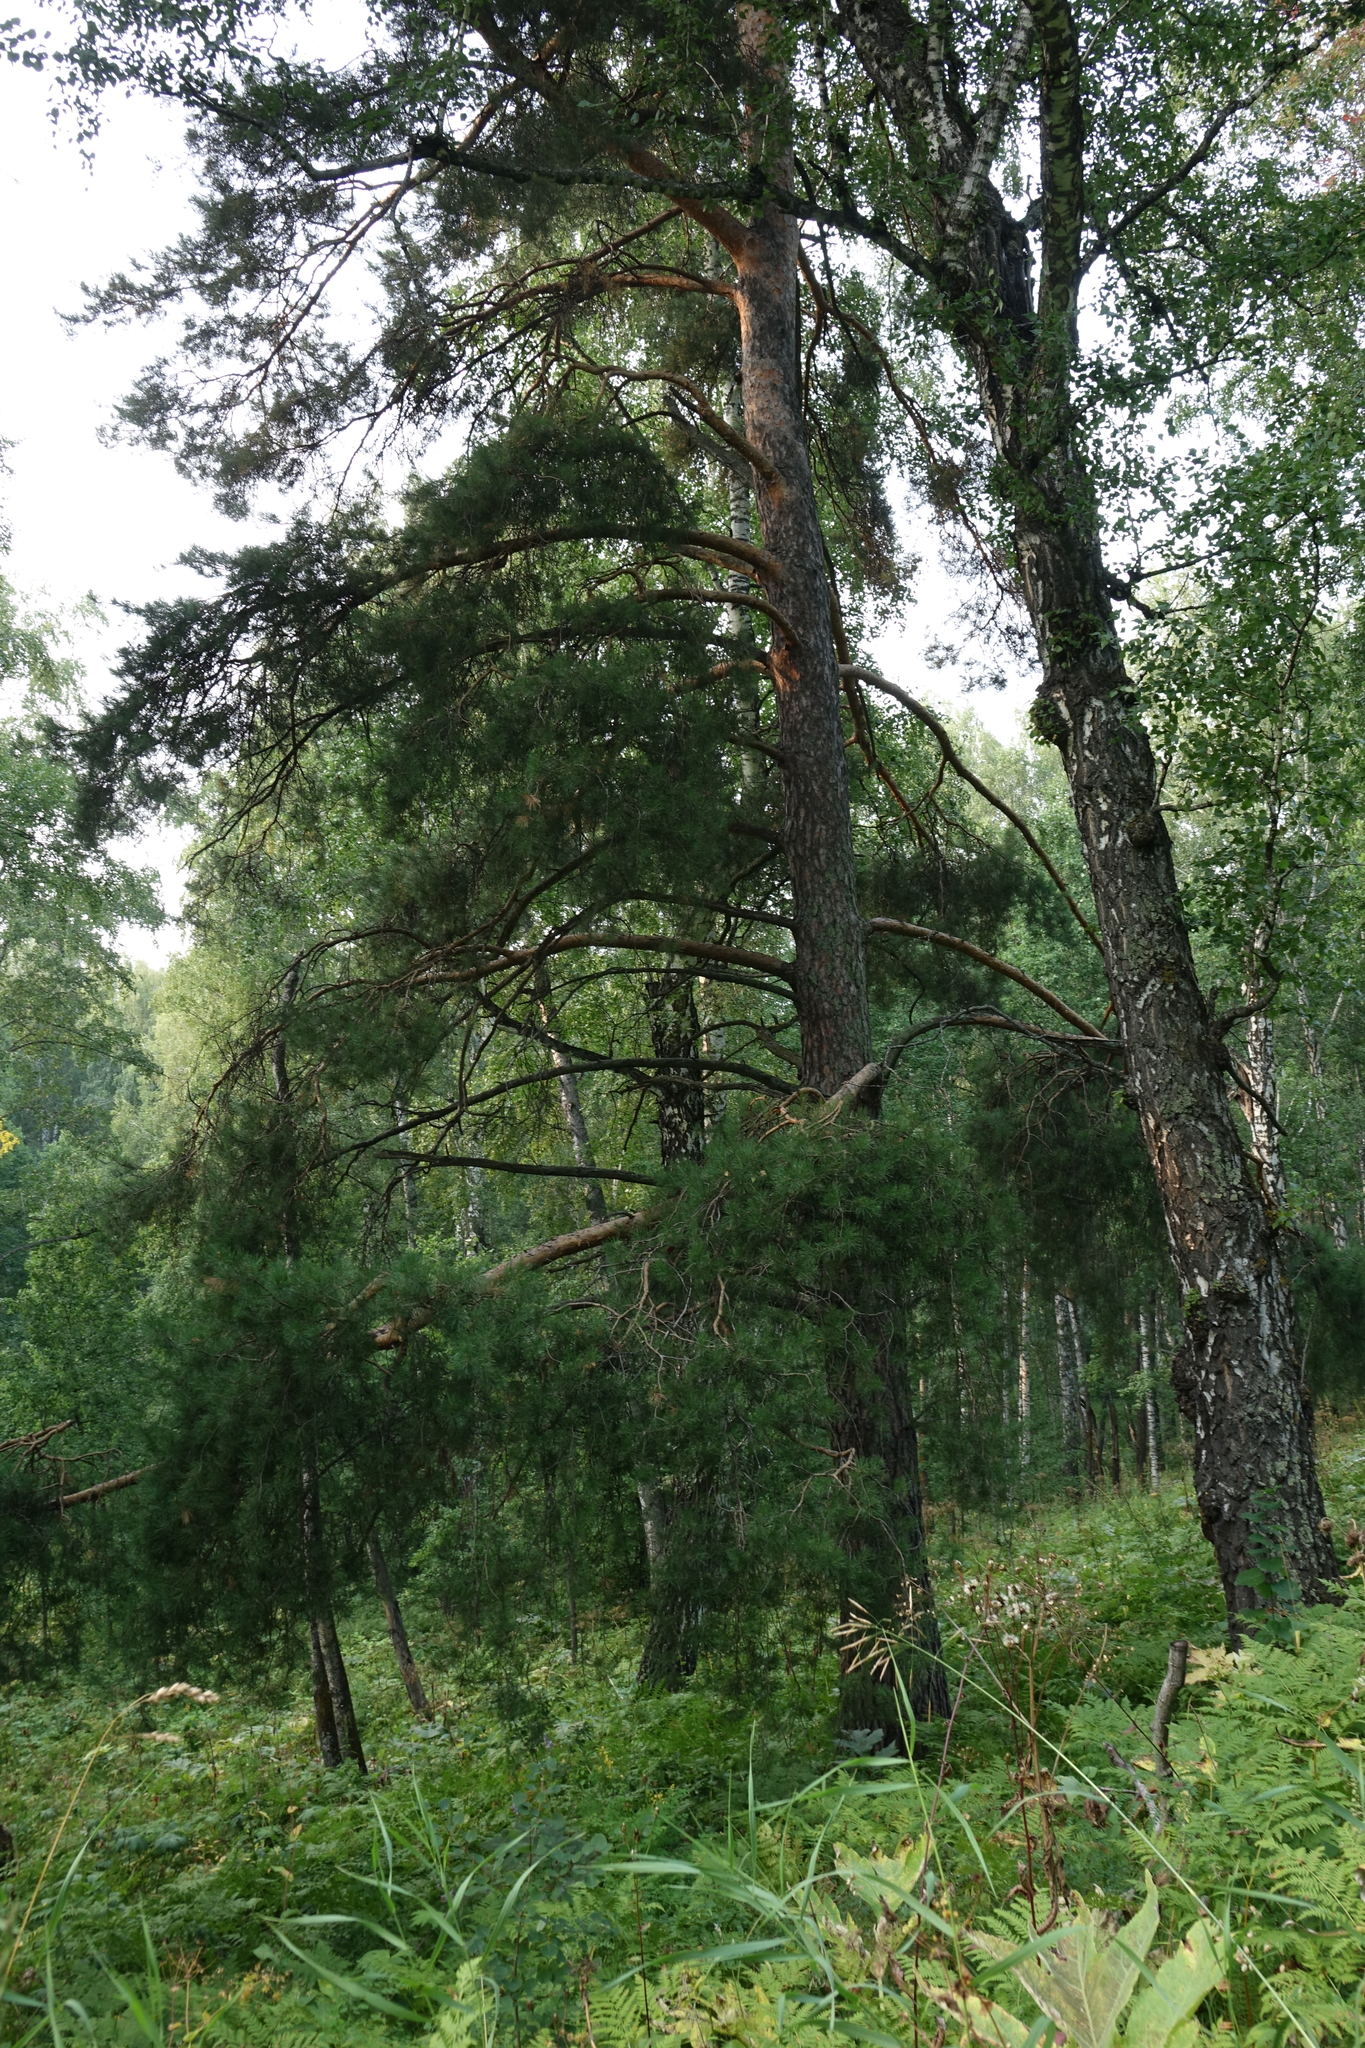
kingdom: Plantae
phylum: Tracheophyta
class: Pinopsida
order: Pinales
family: Pinaceae
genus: Pinus
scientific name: Pinus sylvestris
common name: Scots pine
